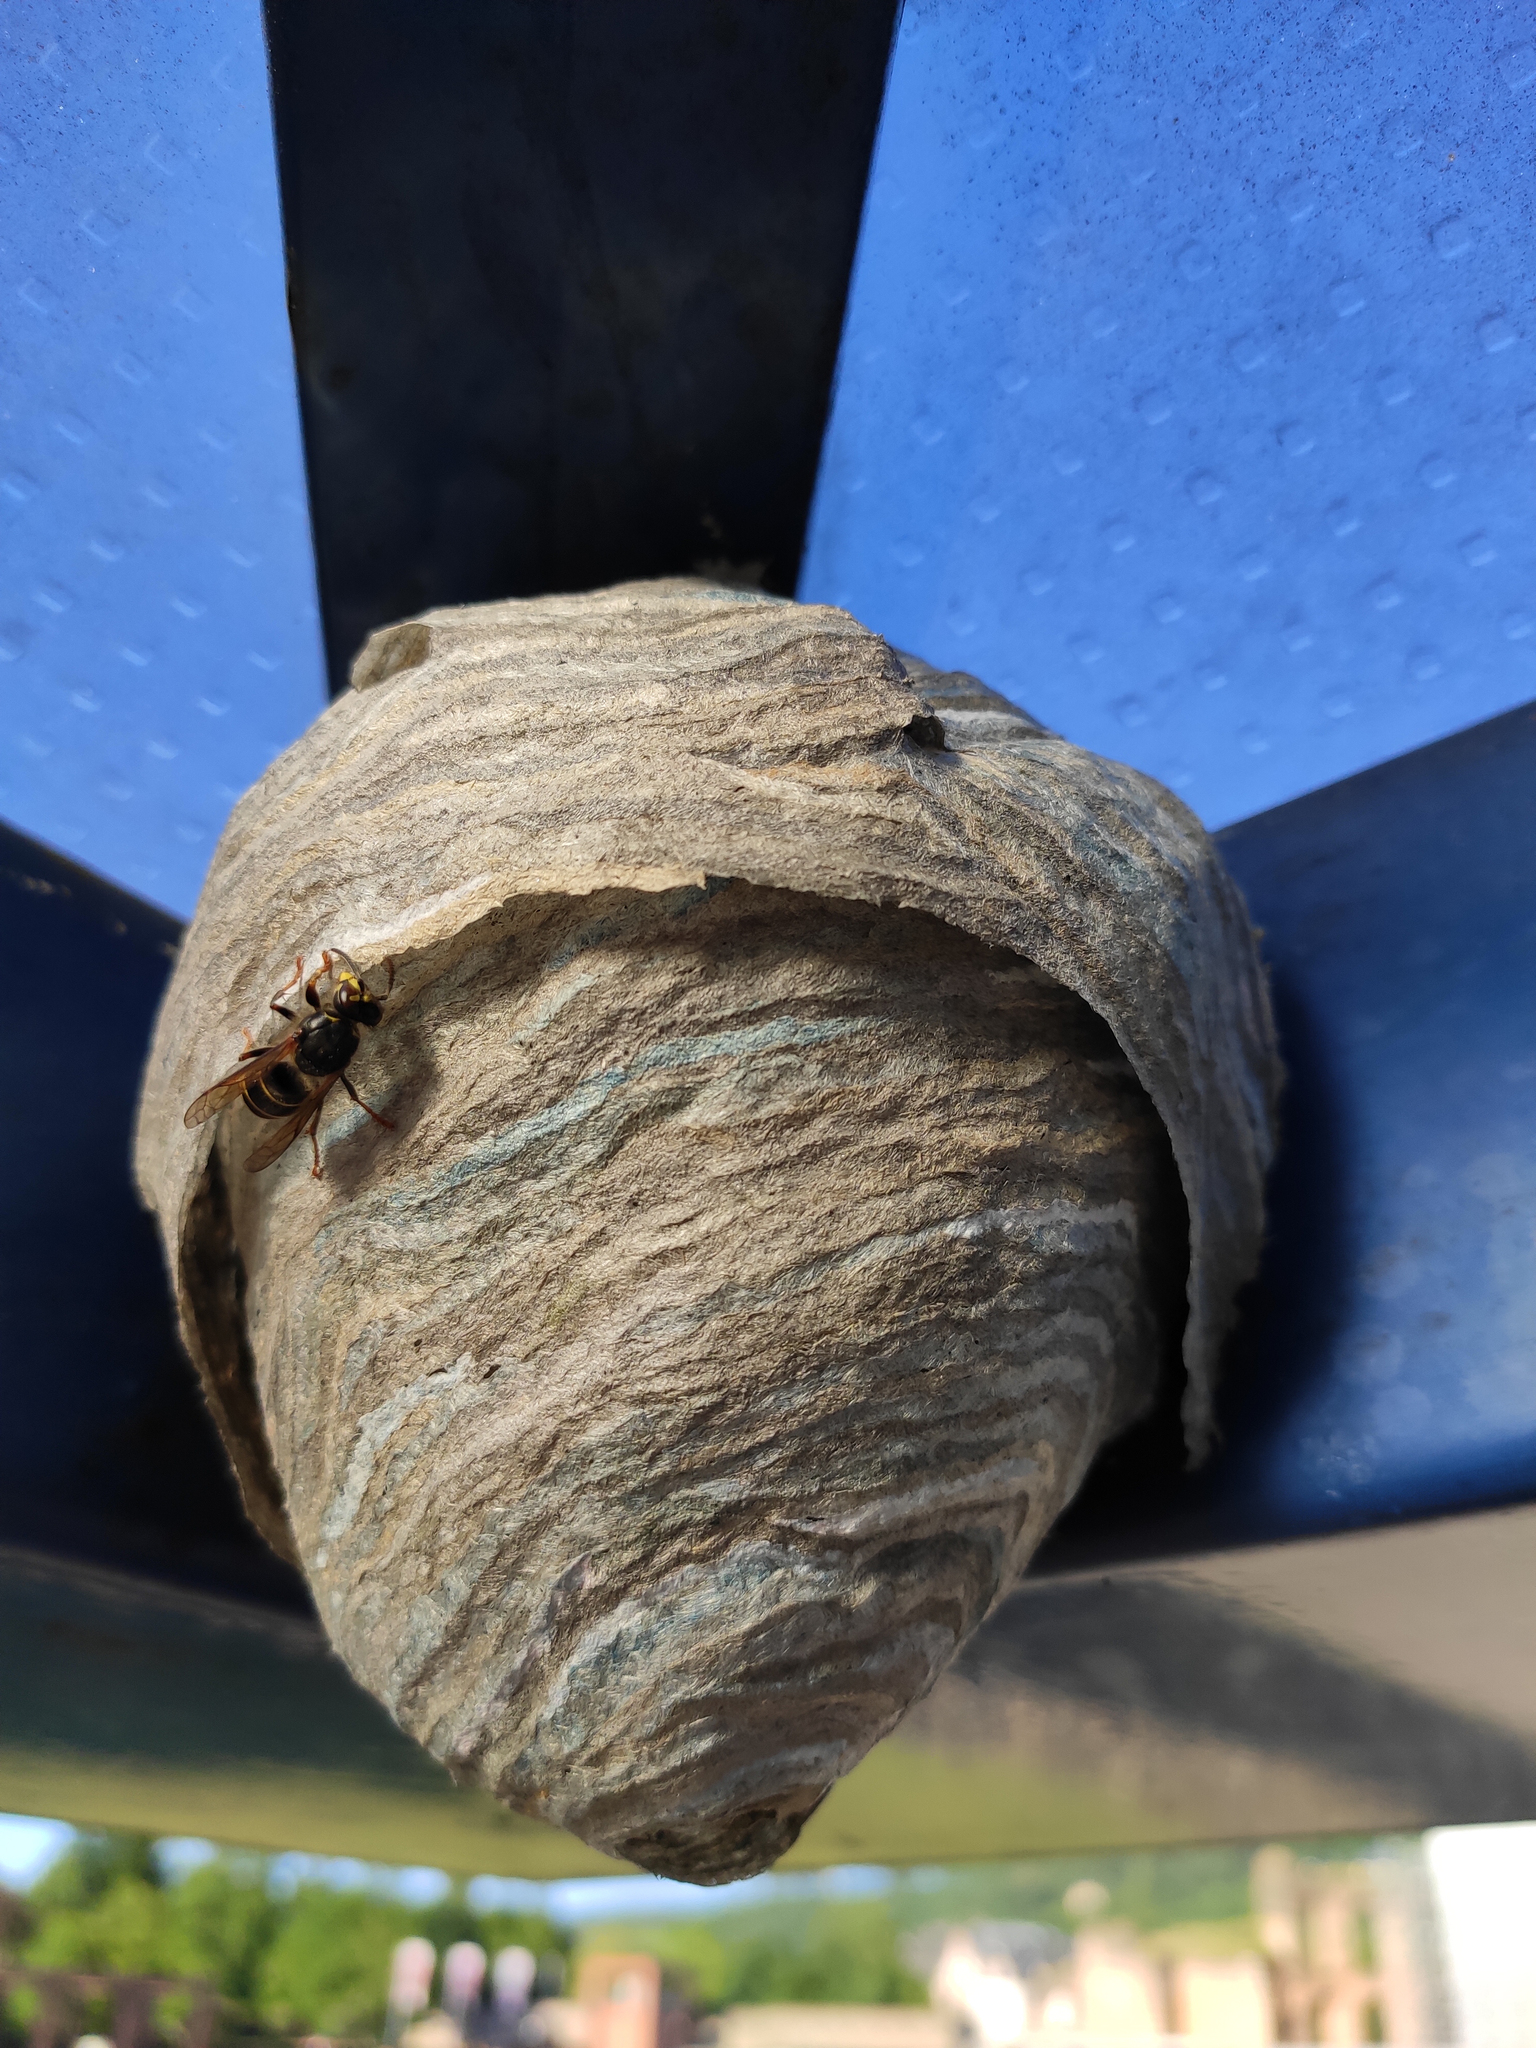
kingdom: Animalia
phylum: Arthropoda
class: Insecta
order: Hymenoptera
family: Vespidae
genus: Dolichovespula
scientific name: Dolichovespula media
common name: Median wasp
